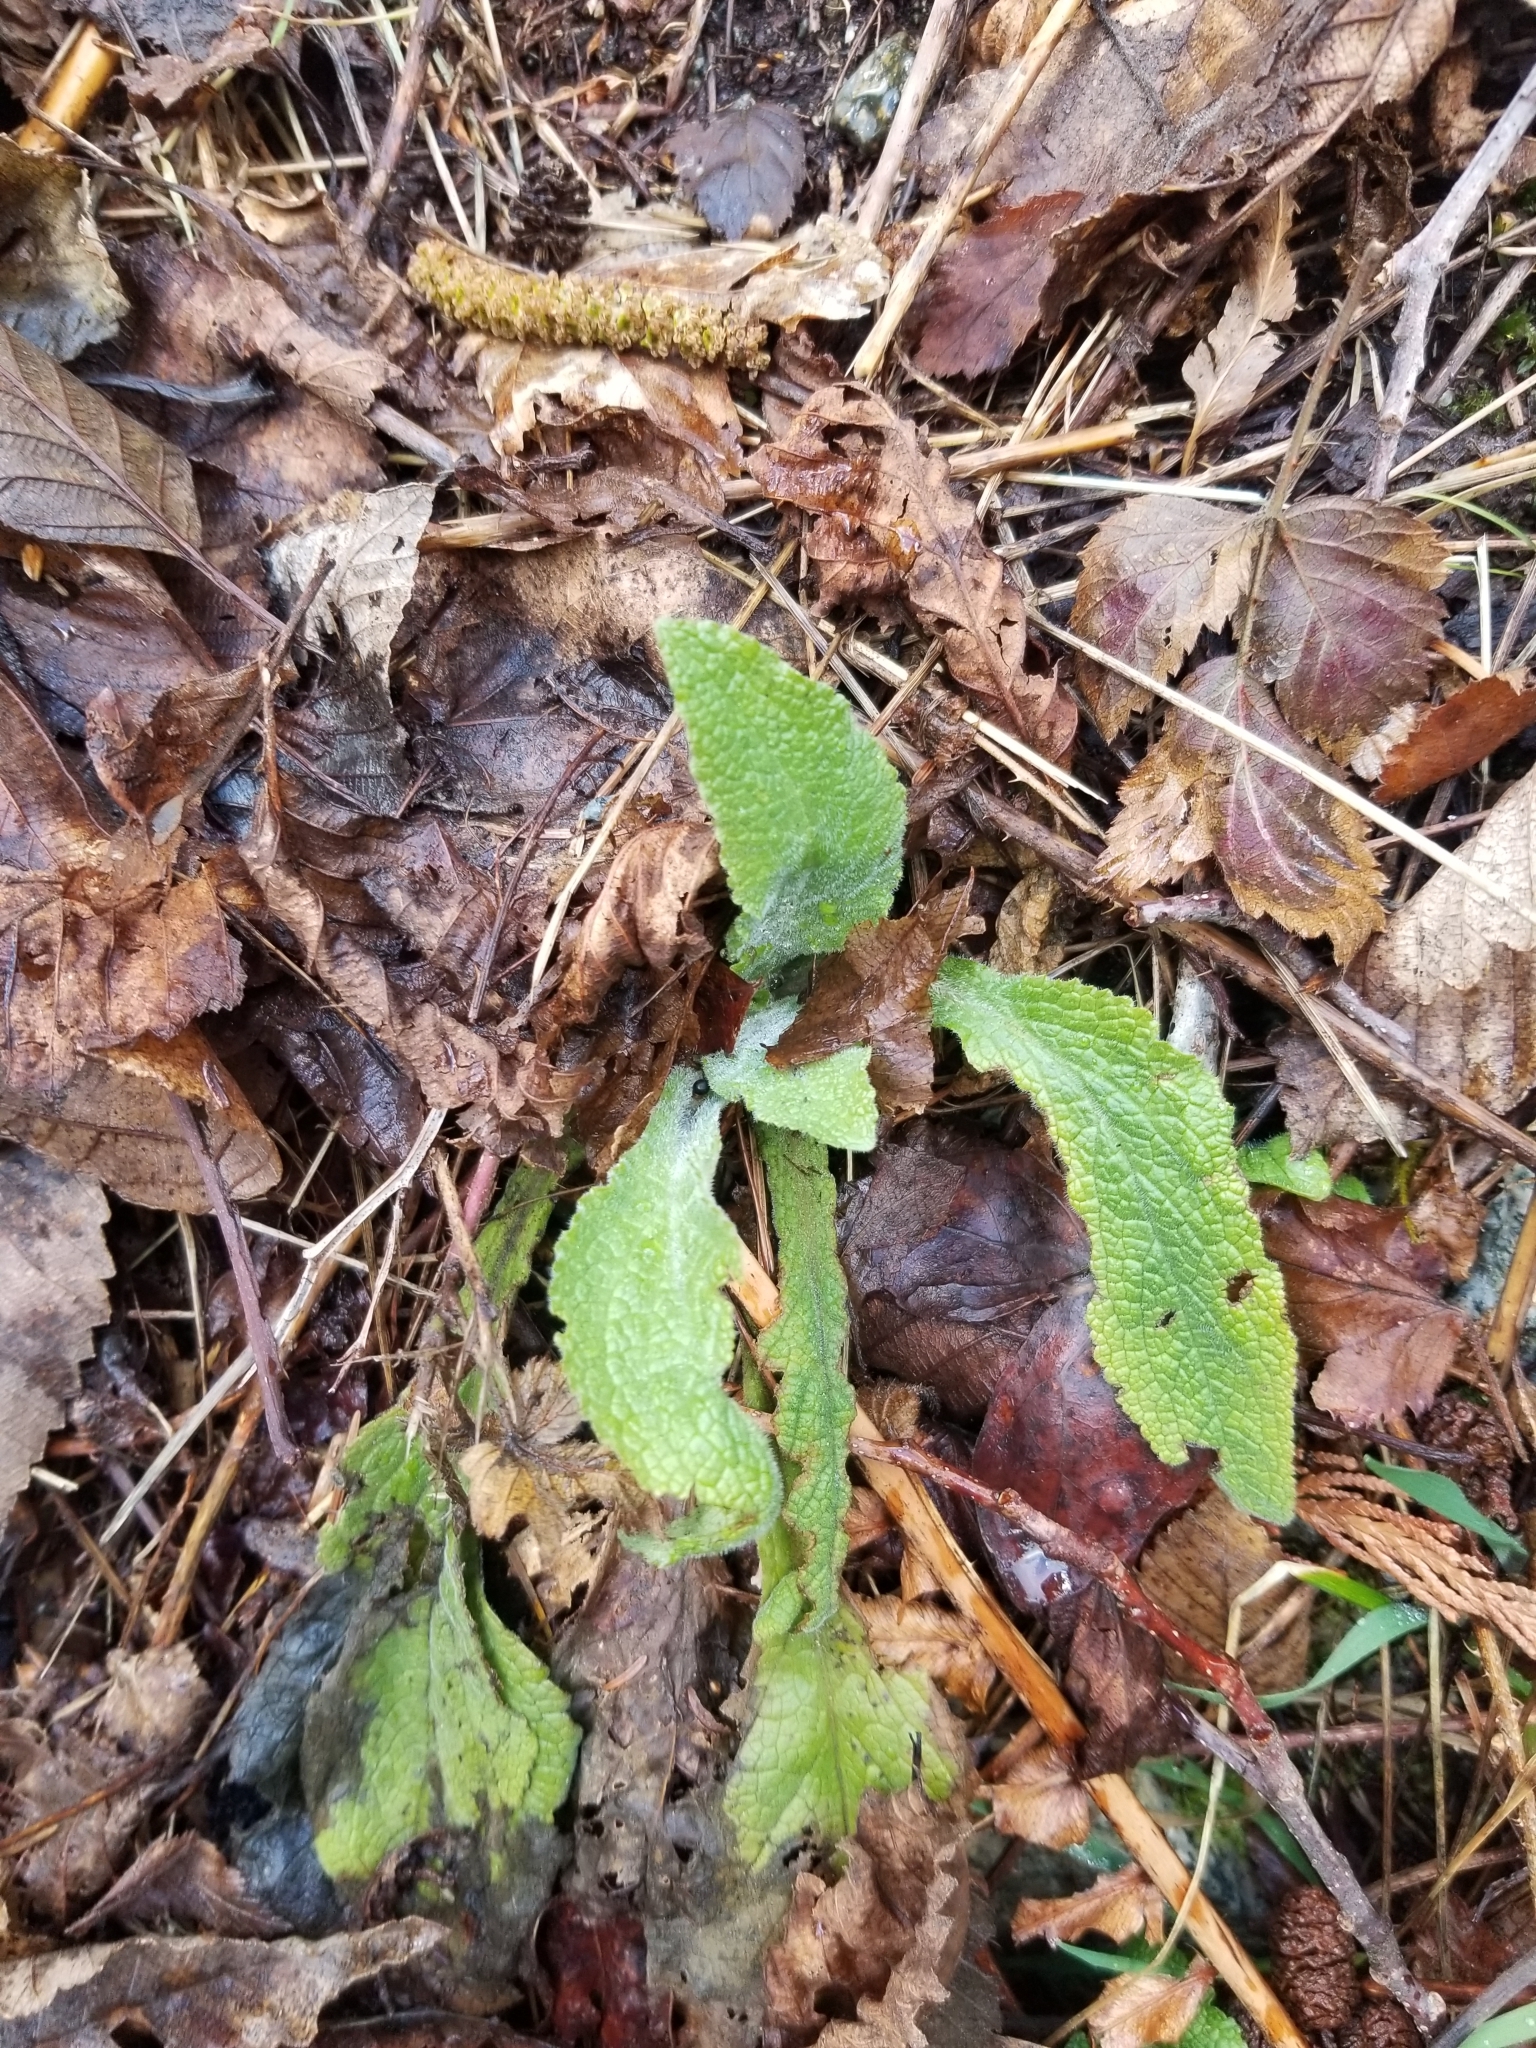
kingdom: Plantae
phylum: Tracheophyta
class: Magnoliopsida
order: Lamiales
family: Plantaginaceae
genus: Digitalis
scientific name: Digitalis purpurea
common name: Foxglove
